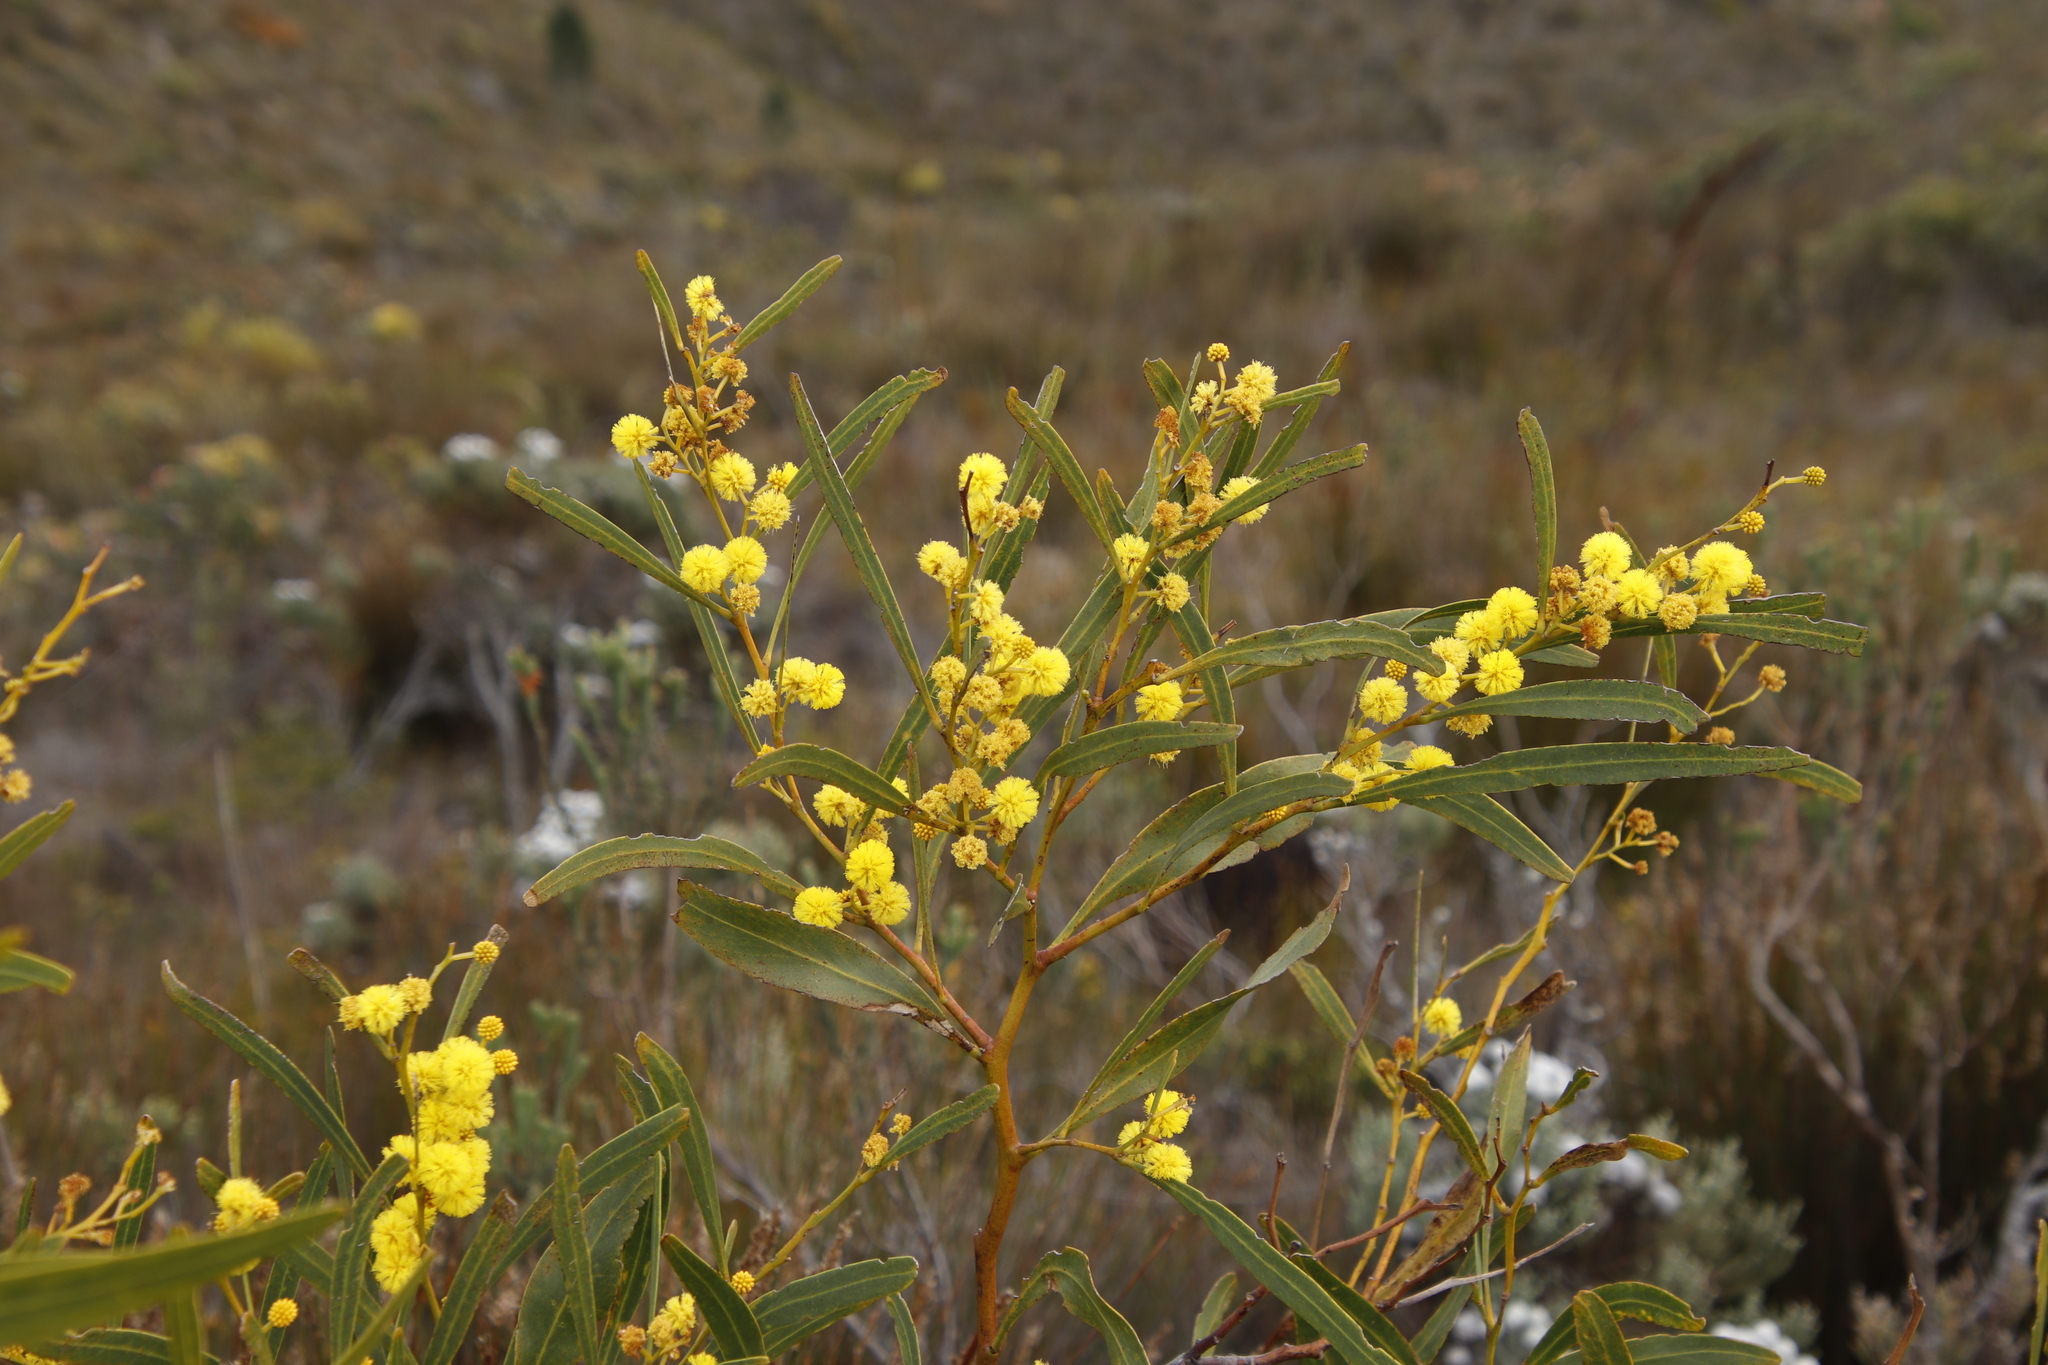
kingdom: Plantae
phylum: Tracheophyta
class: Magnoliopsida
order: Fabales
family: Fabaceae
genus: Acacia
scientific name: Acacia saligna
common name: Orange wattle
